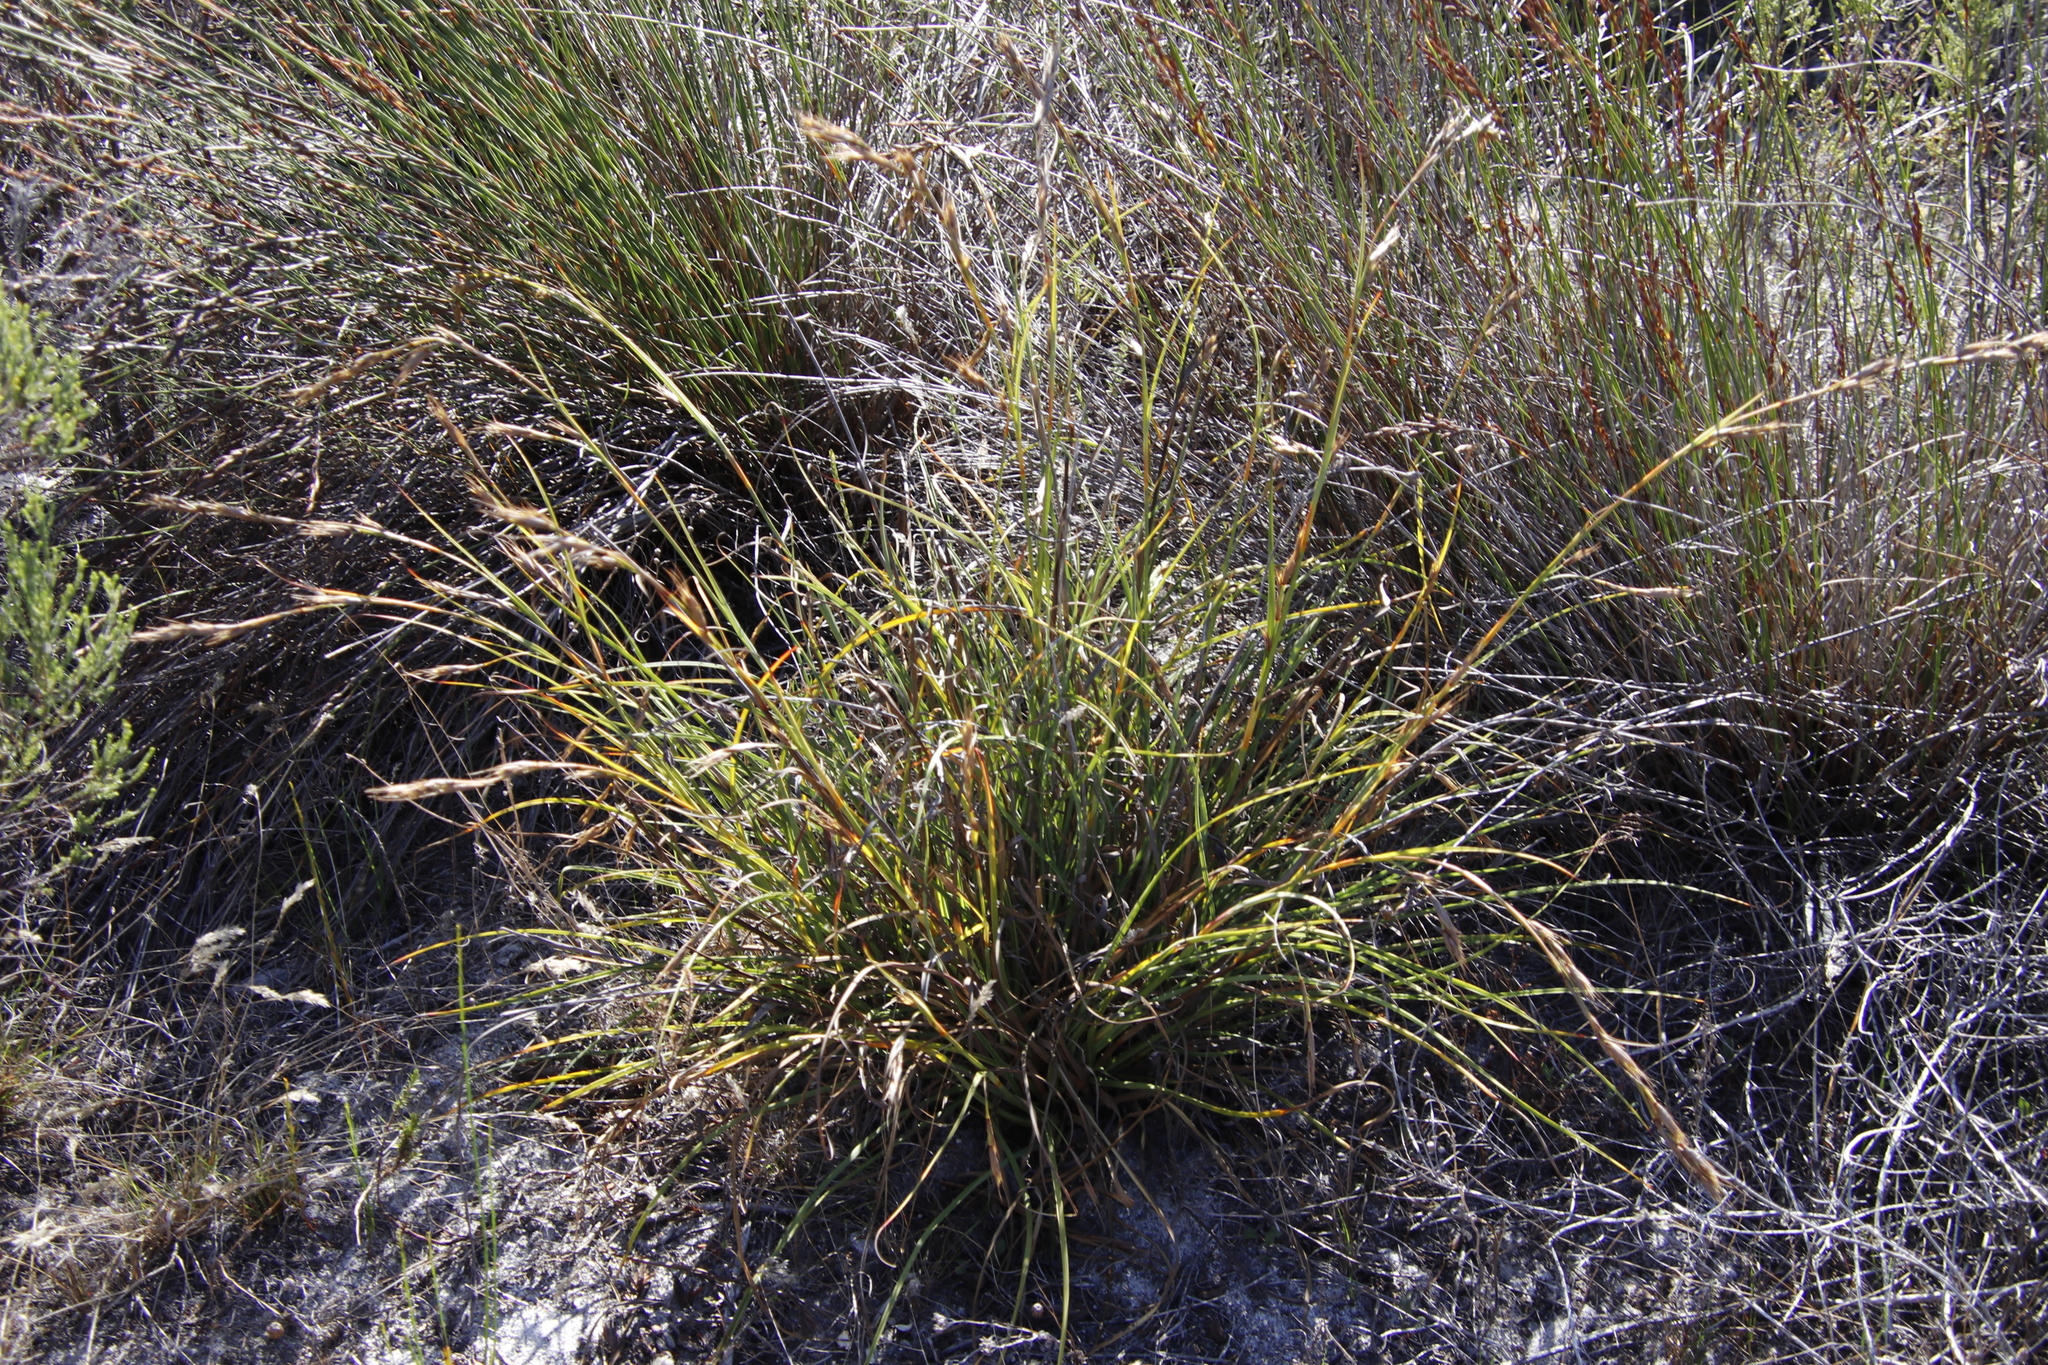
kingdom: Plantae
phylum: Tracheophyta
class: Liliopsida
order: Poales
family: Cyperaceae
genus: Tetraria
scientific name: Tetraria eximia
